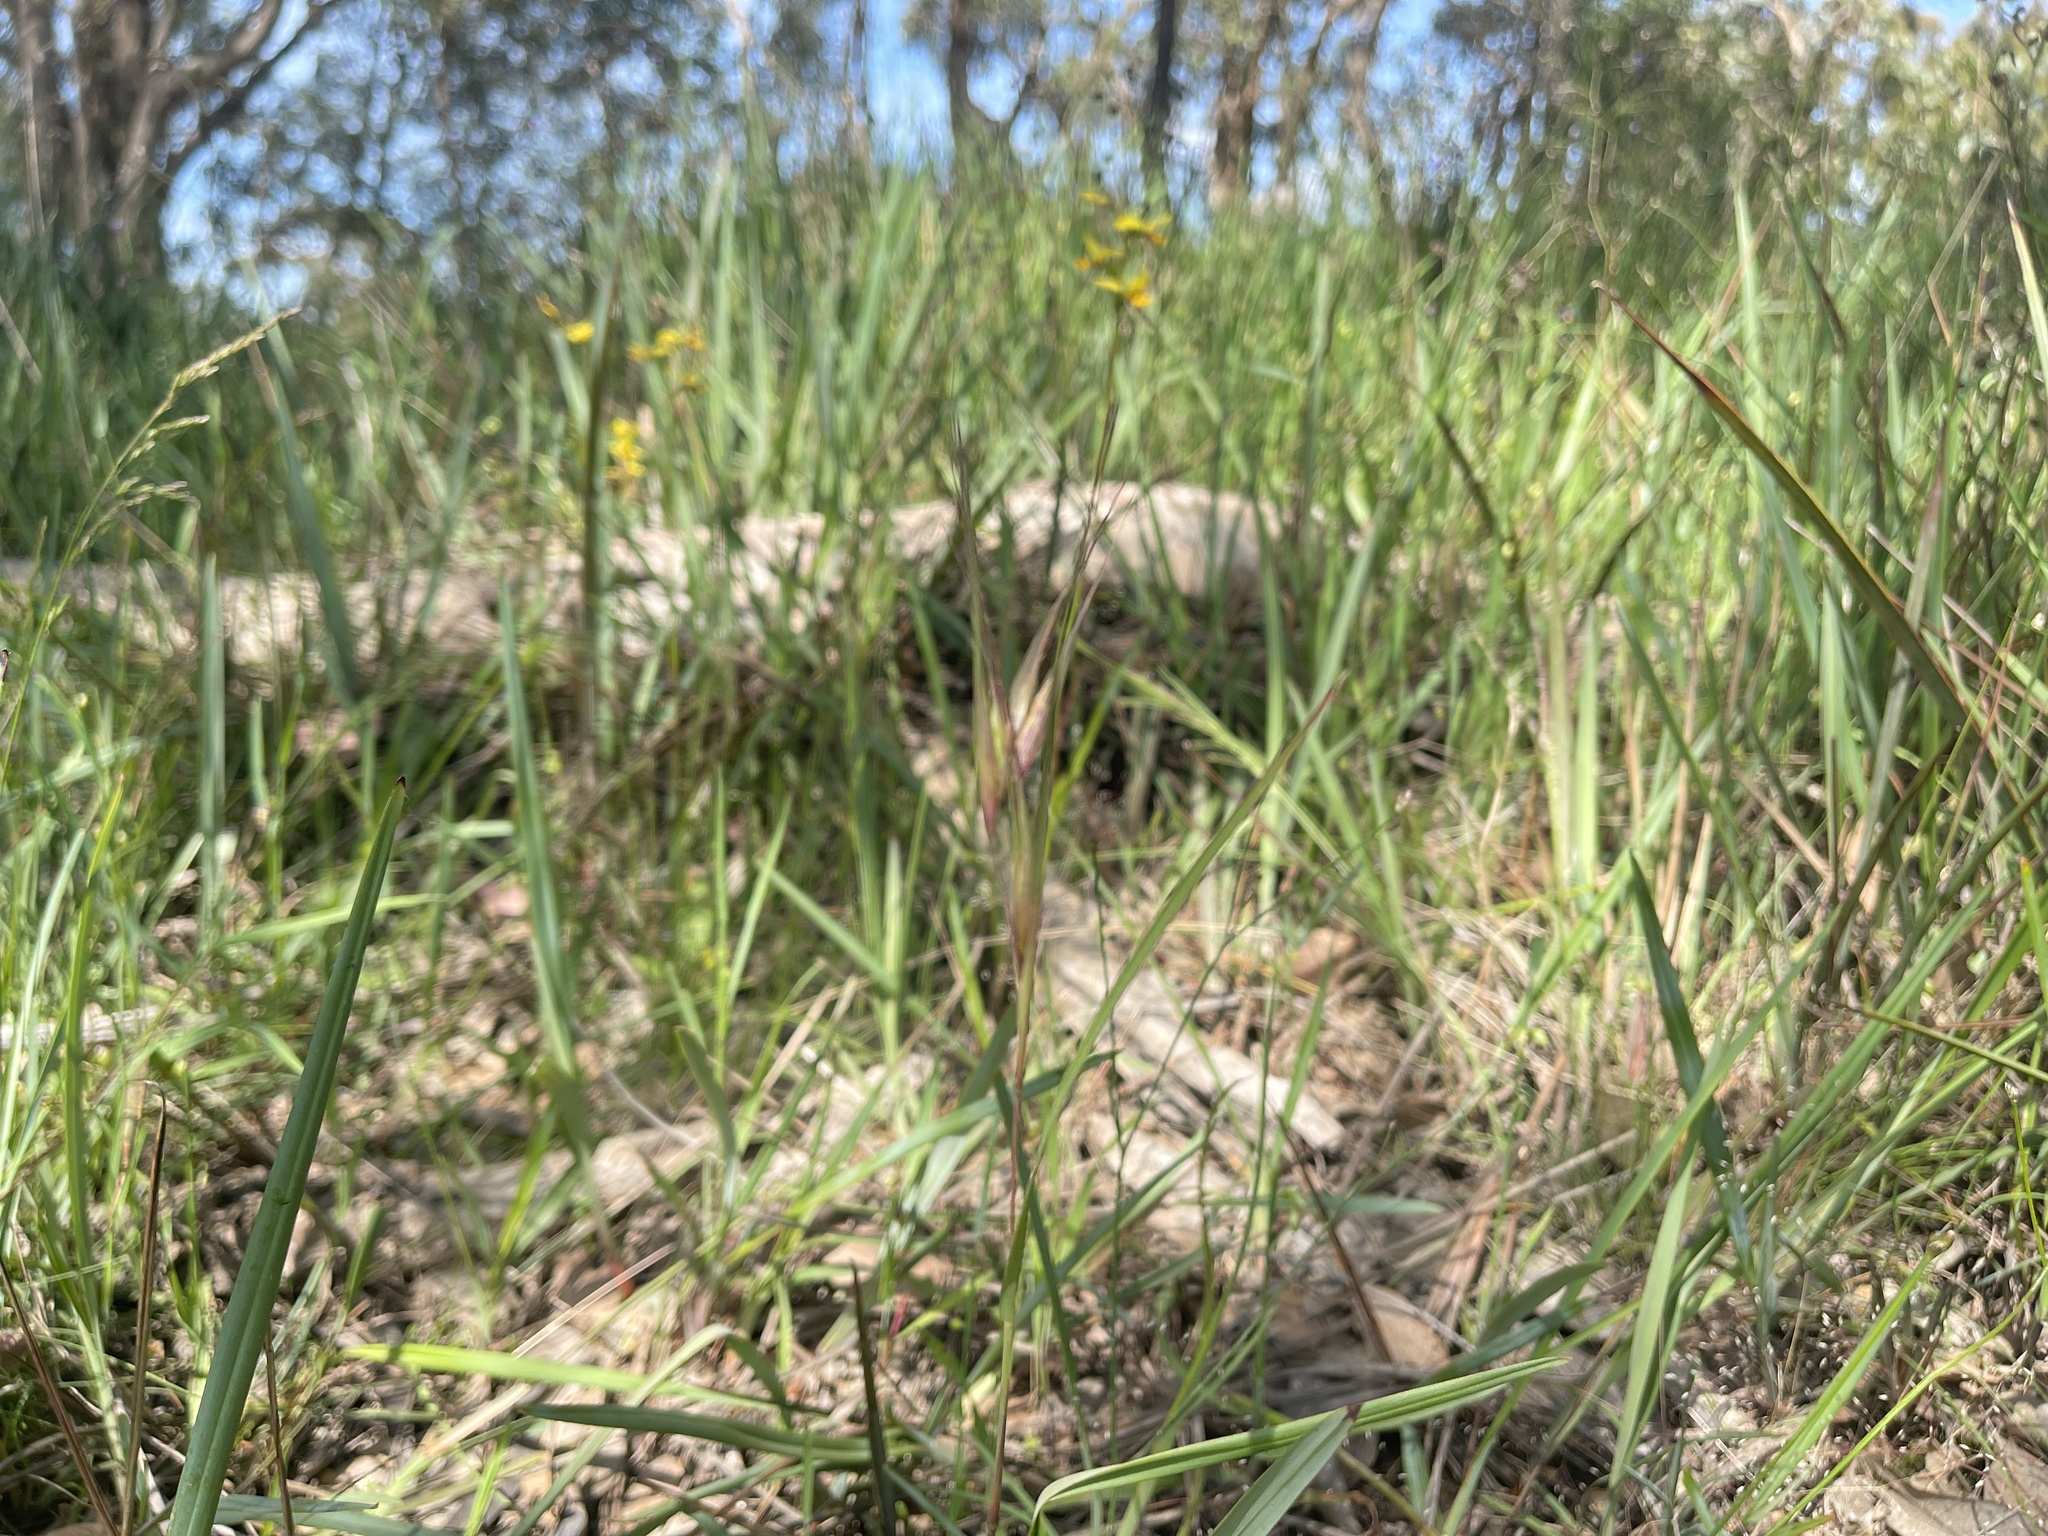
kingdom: Plantae
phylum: Tracheophyta
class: Liliopsida
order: Poales
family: Poaceae
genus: Themeda
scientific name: Themeda triandra
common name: Kangaroo grass
